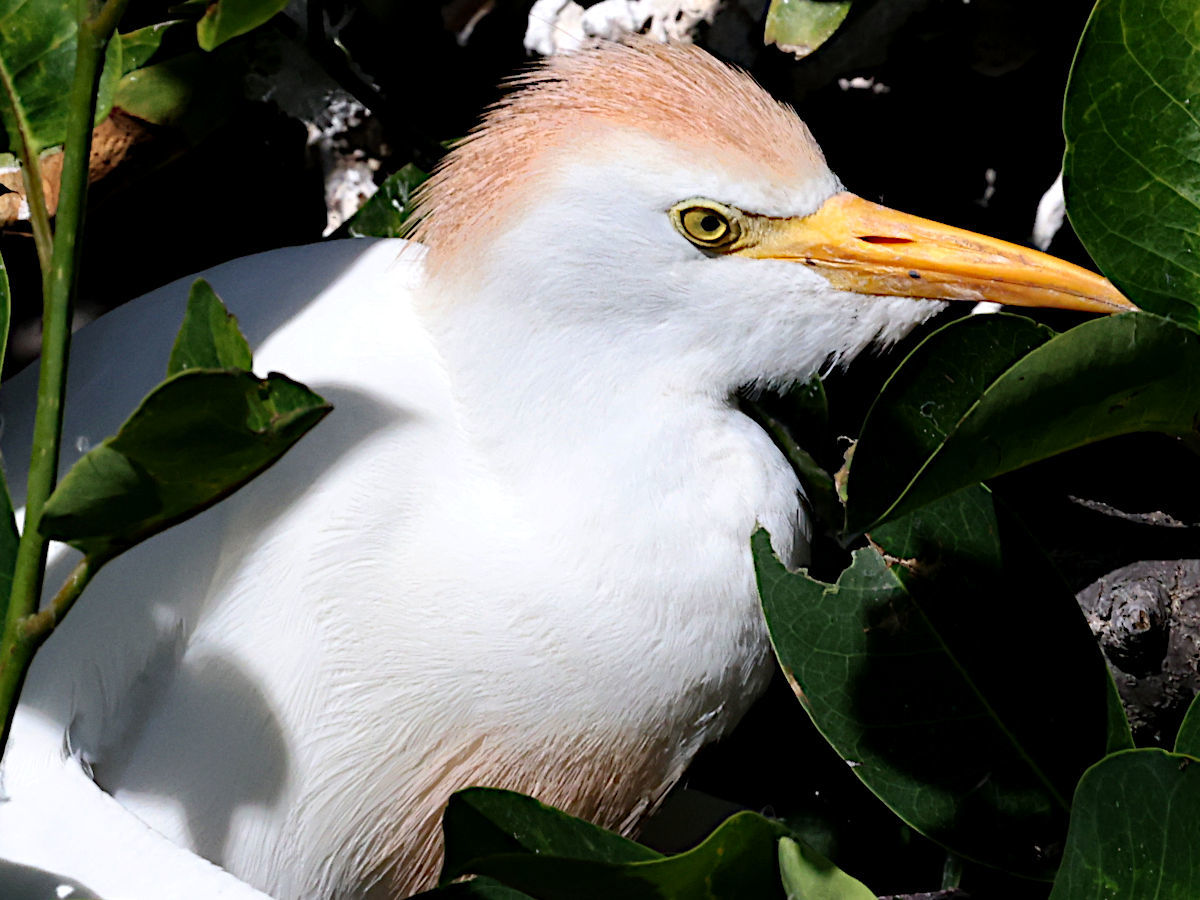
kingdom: Animalia
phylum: Chordata
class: Aves
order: Pelecaniformes
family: Ardeidae
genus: Bubulcus
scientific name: Bubulcus ibis
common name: Cattle egret
